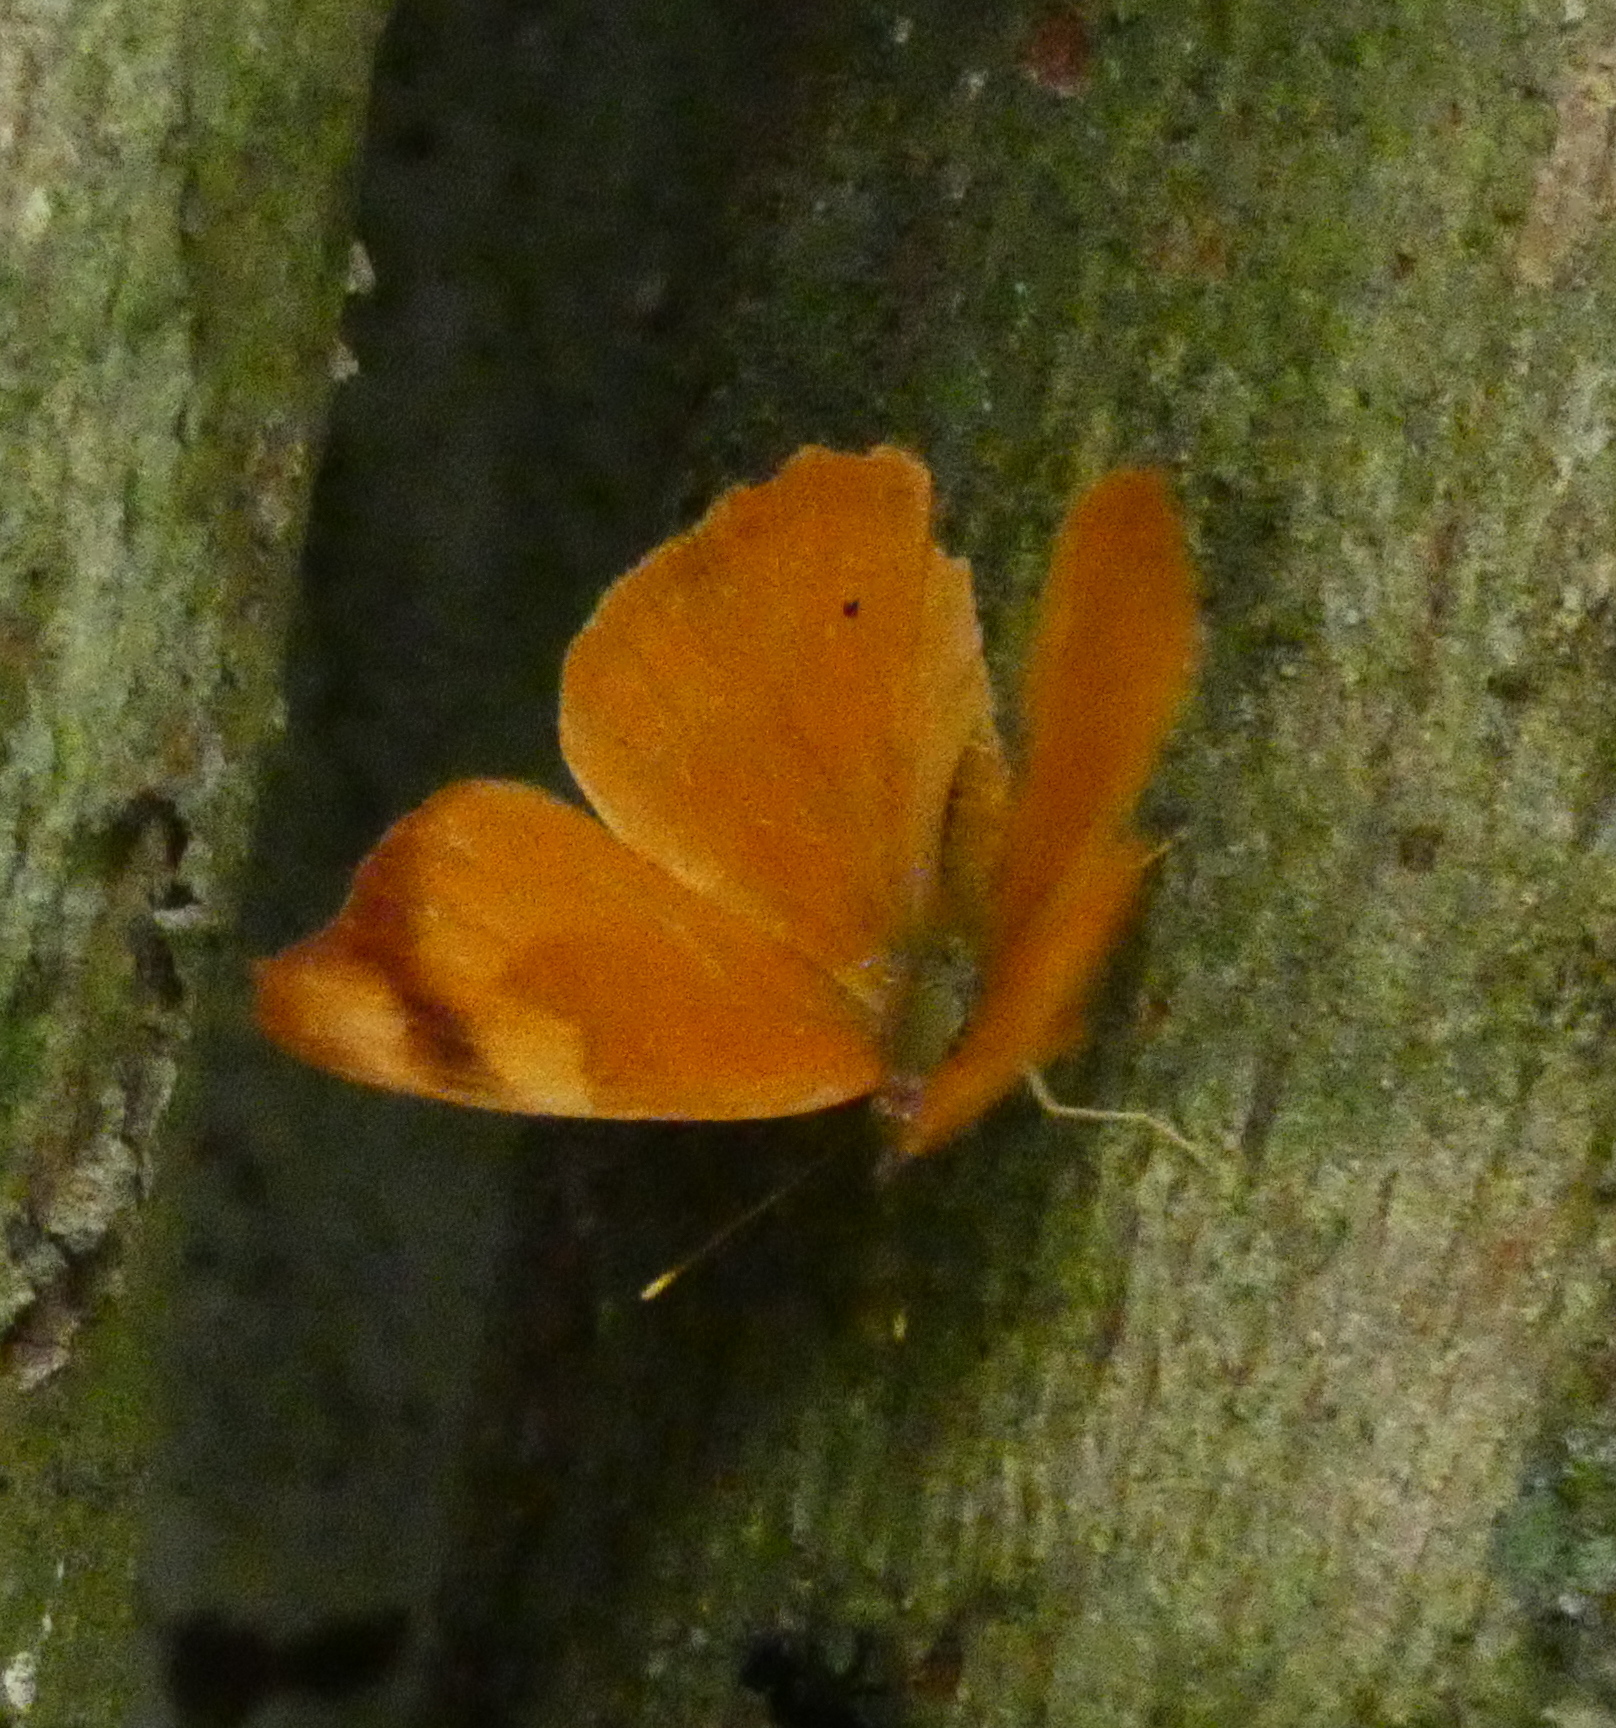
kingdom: Animalia
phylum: Arthropoda
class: Insecta
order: Lepidoptera
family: Nymphalidae
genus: Temenis
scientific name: Temenis laothoe
